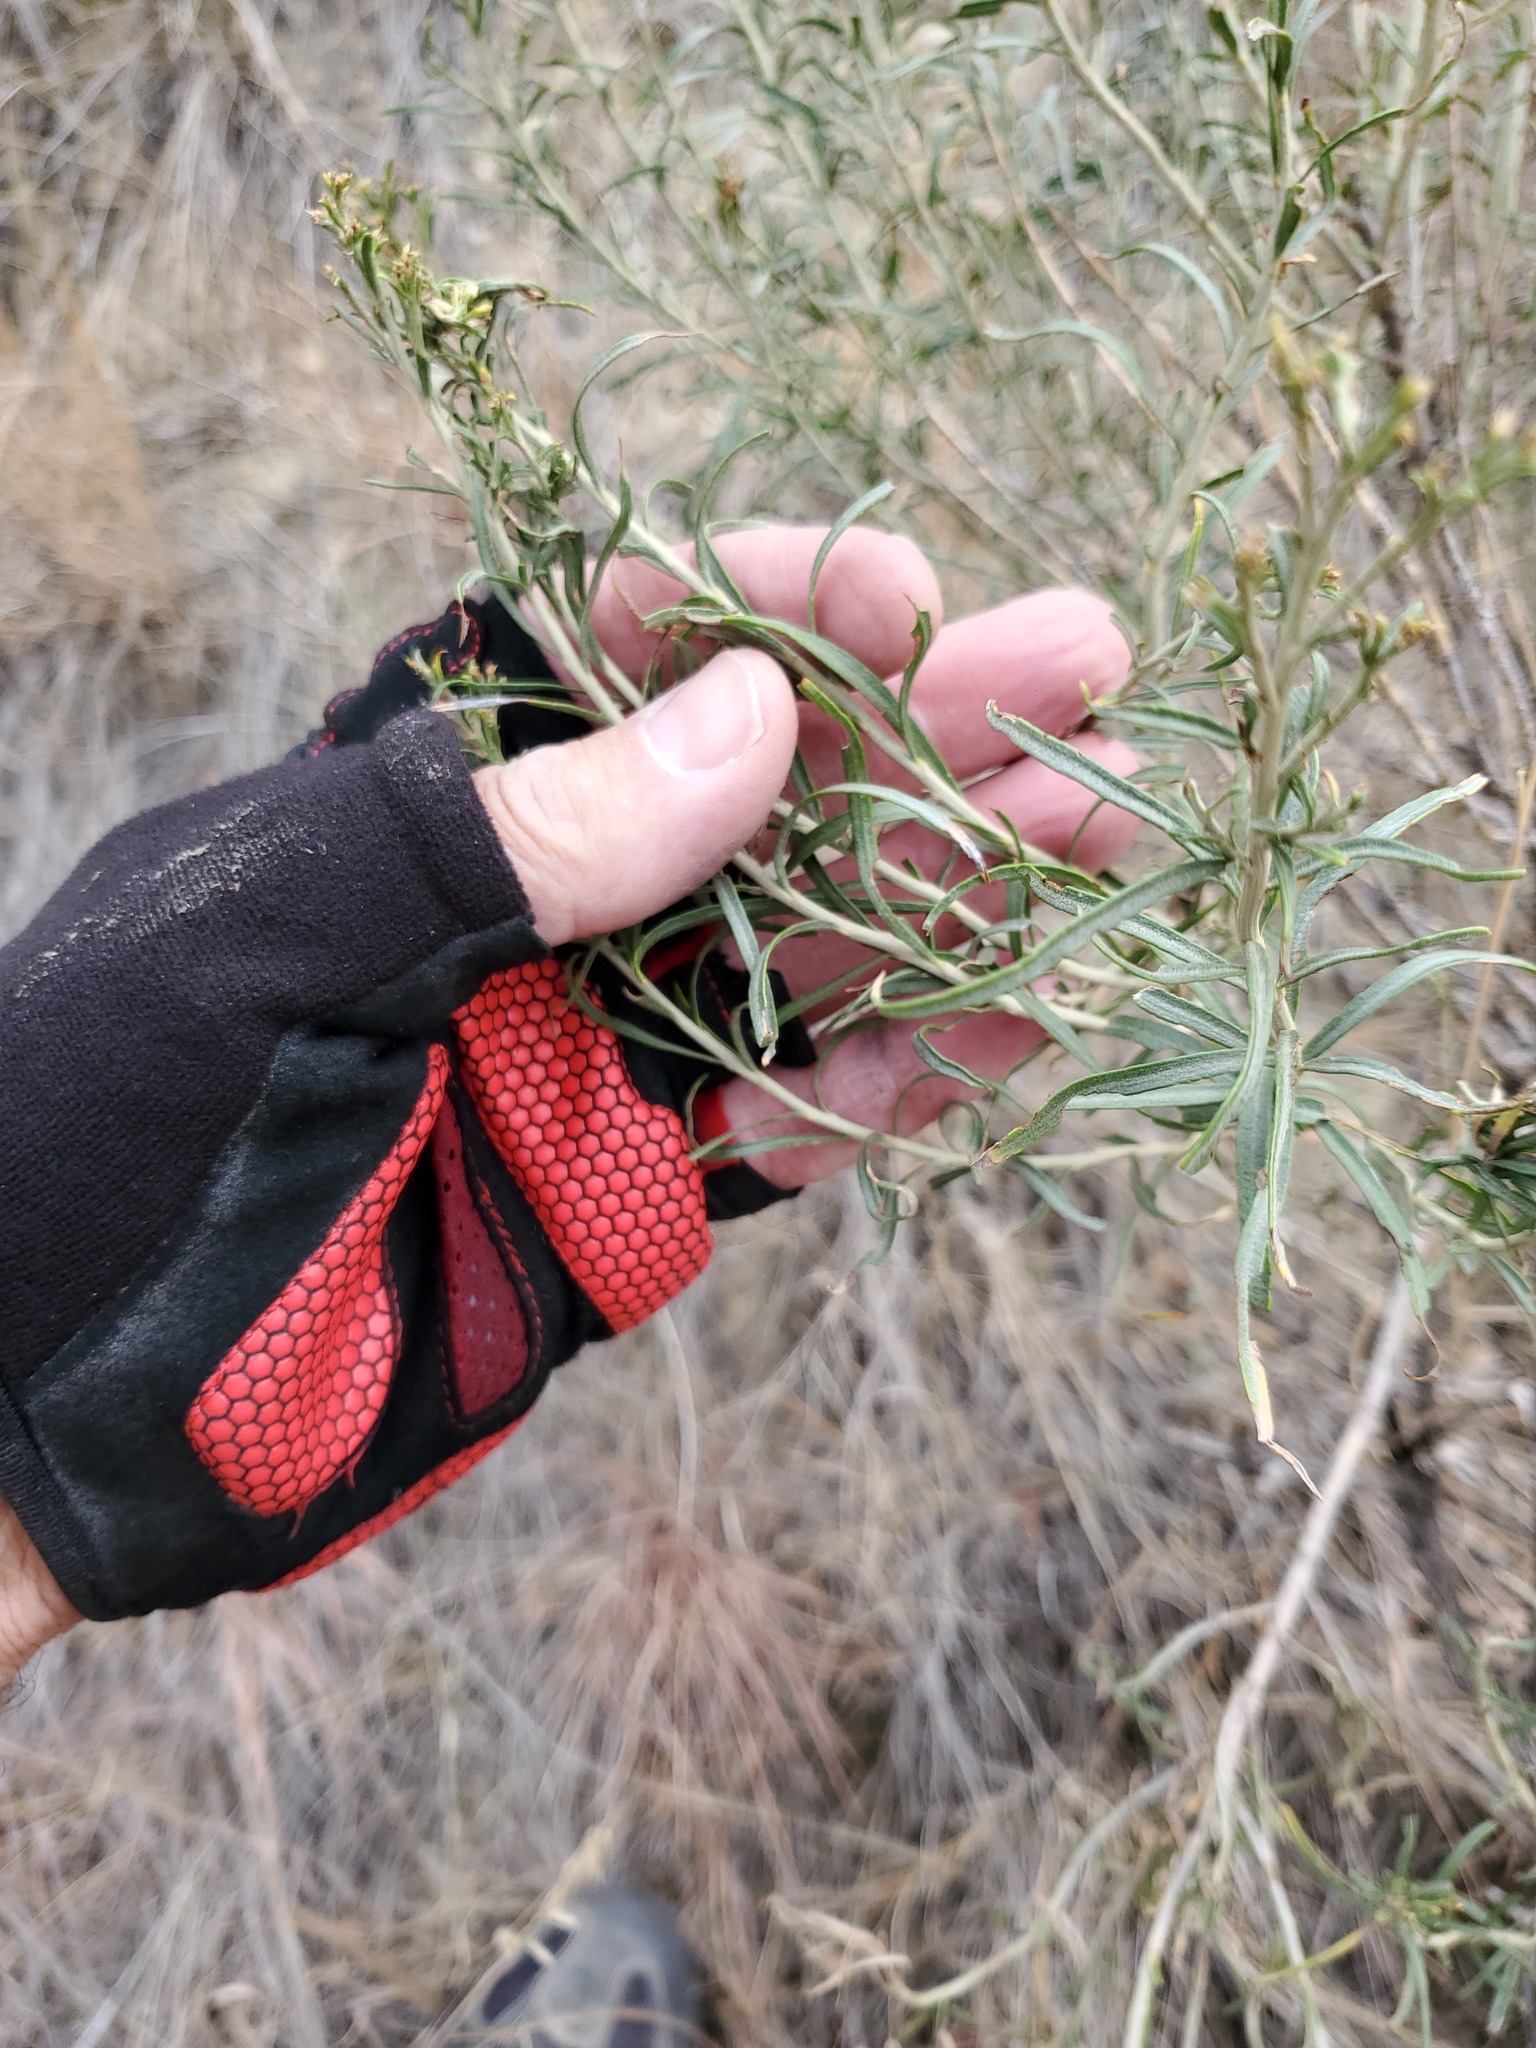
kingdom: Plantae
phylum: Tracheophyta
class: Magnoliopsida
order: Asterales
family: Asteraceae
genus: Ericameria
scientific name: Ericameria nauseosa
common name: Rubber rabbitbrush
